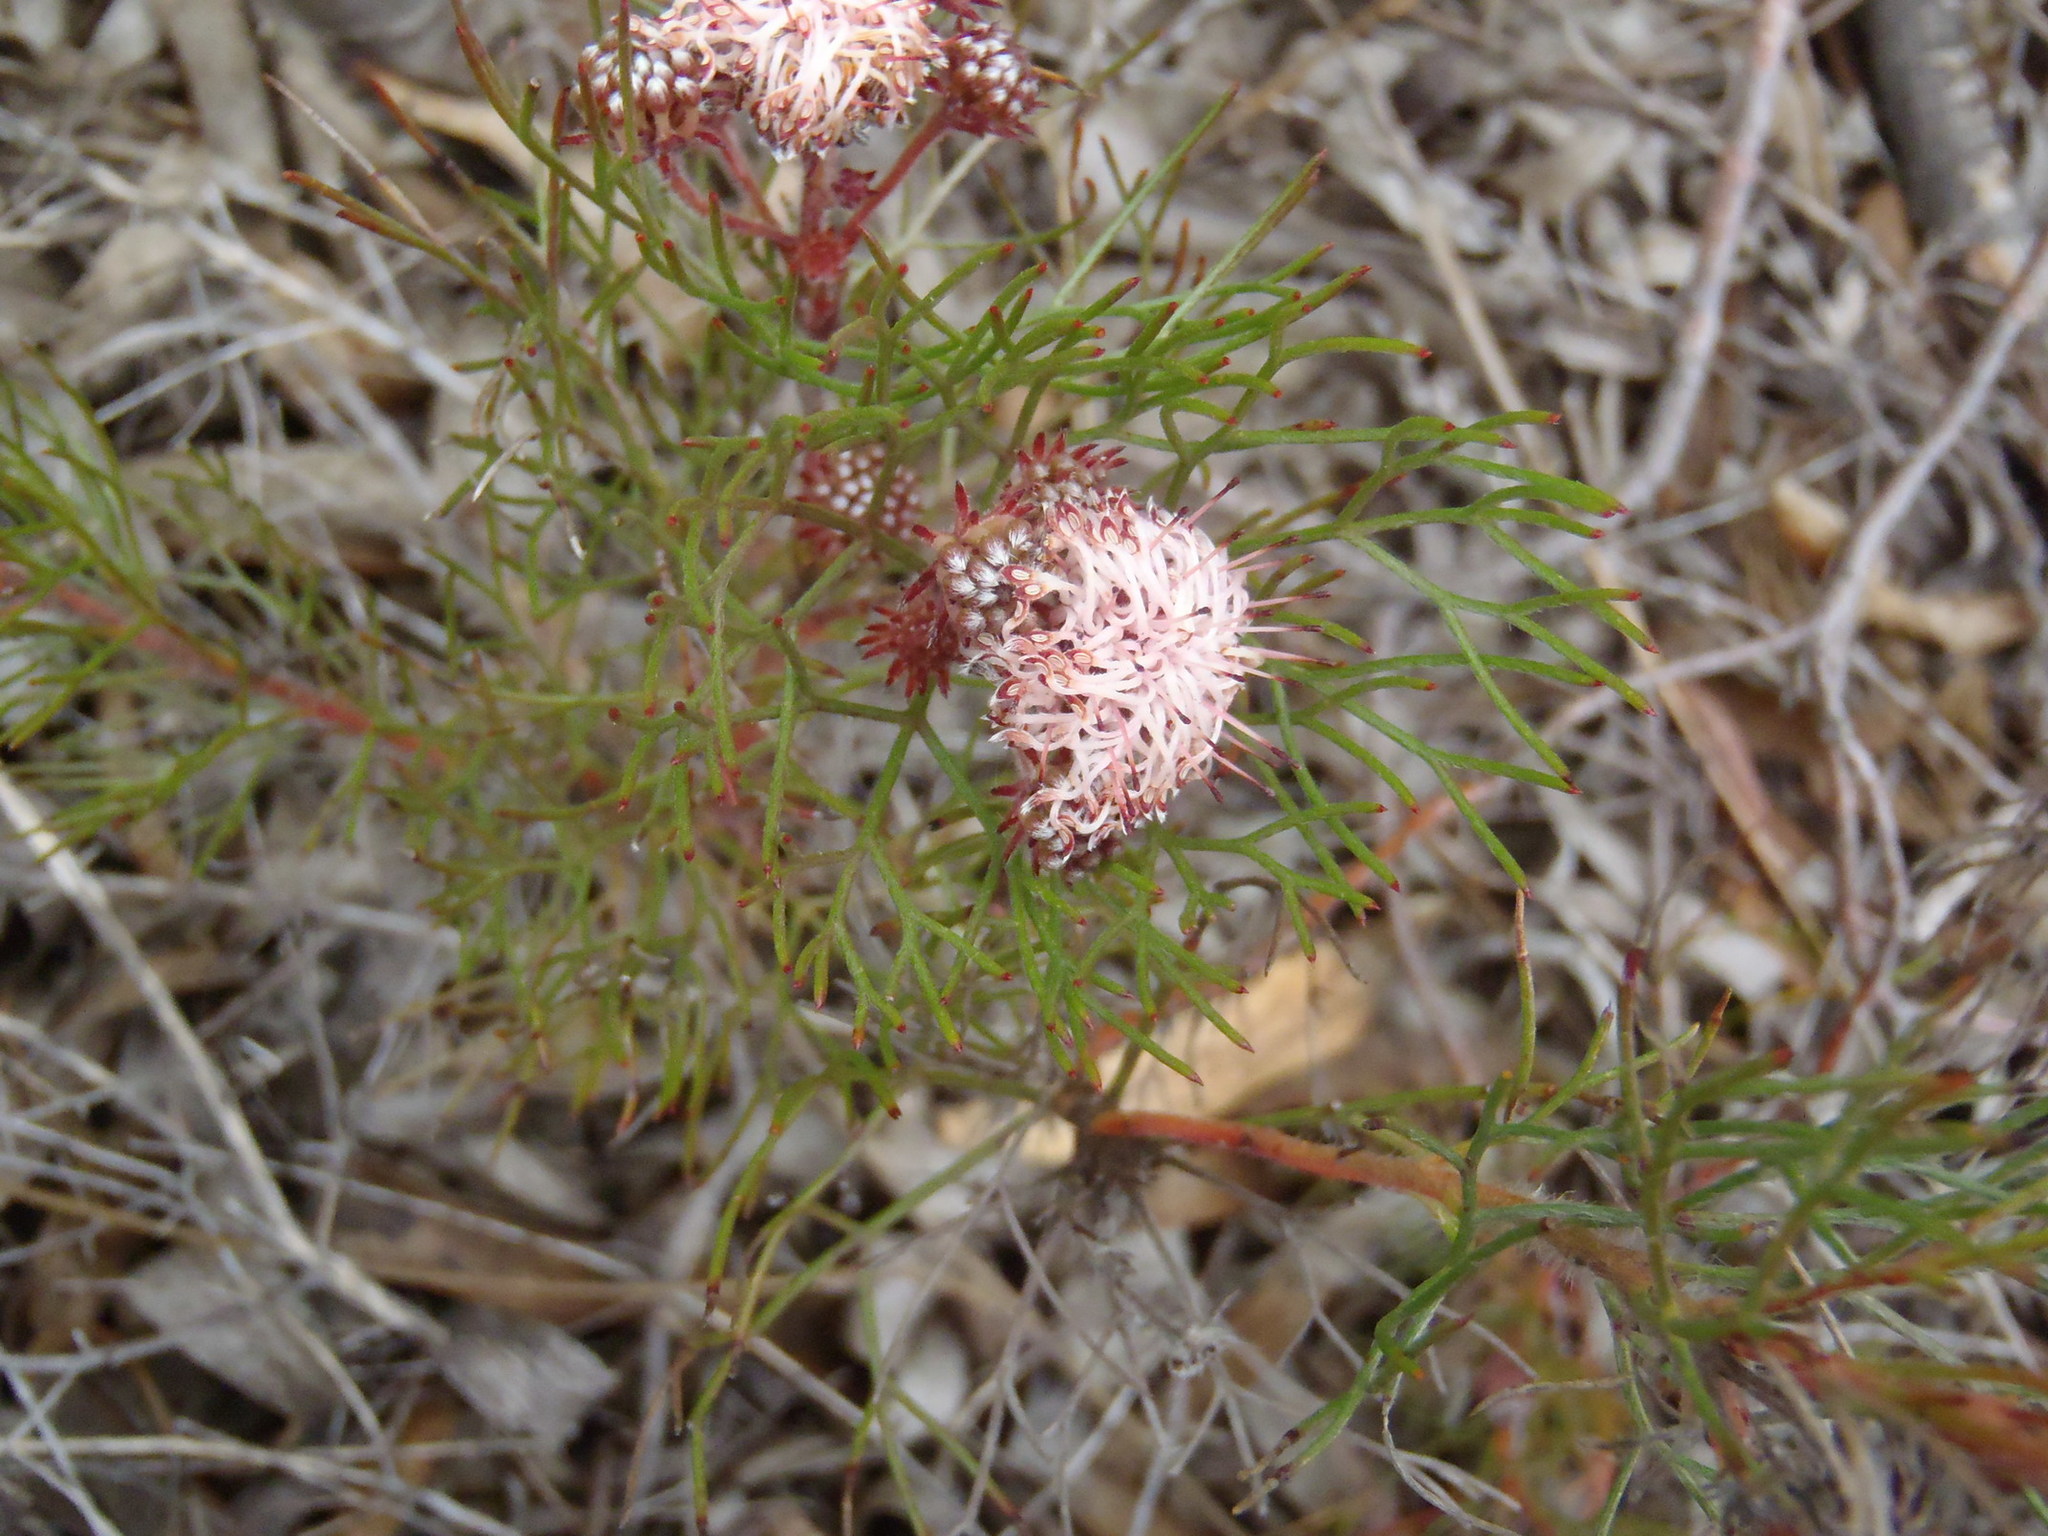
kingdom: Plantae
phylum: Tracheophyta
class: Magnoliopsida
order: Proteales
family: Proteaceae
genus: Serruria
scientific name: Serruria fasciflora
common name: Common pin spiderhead
